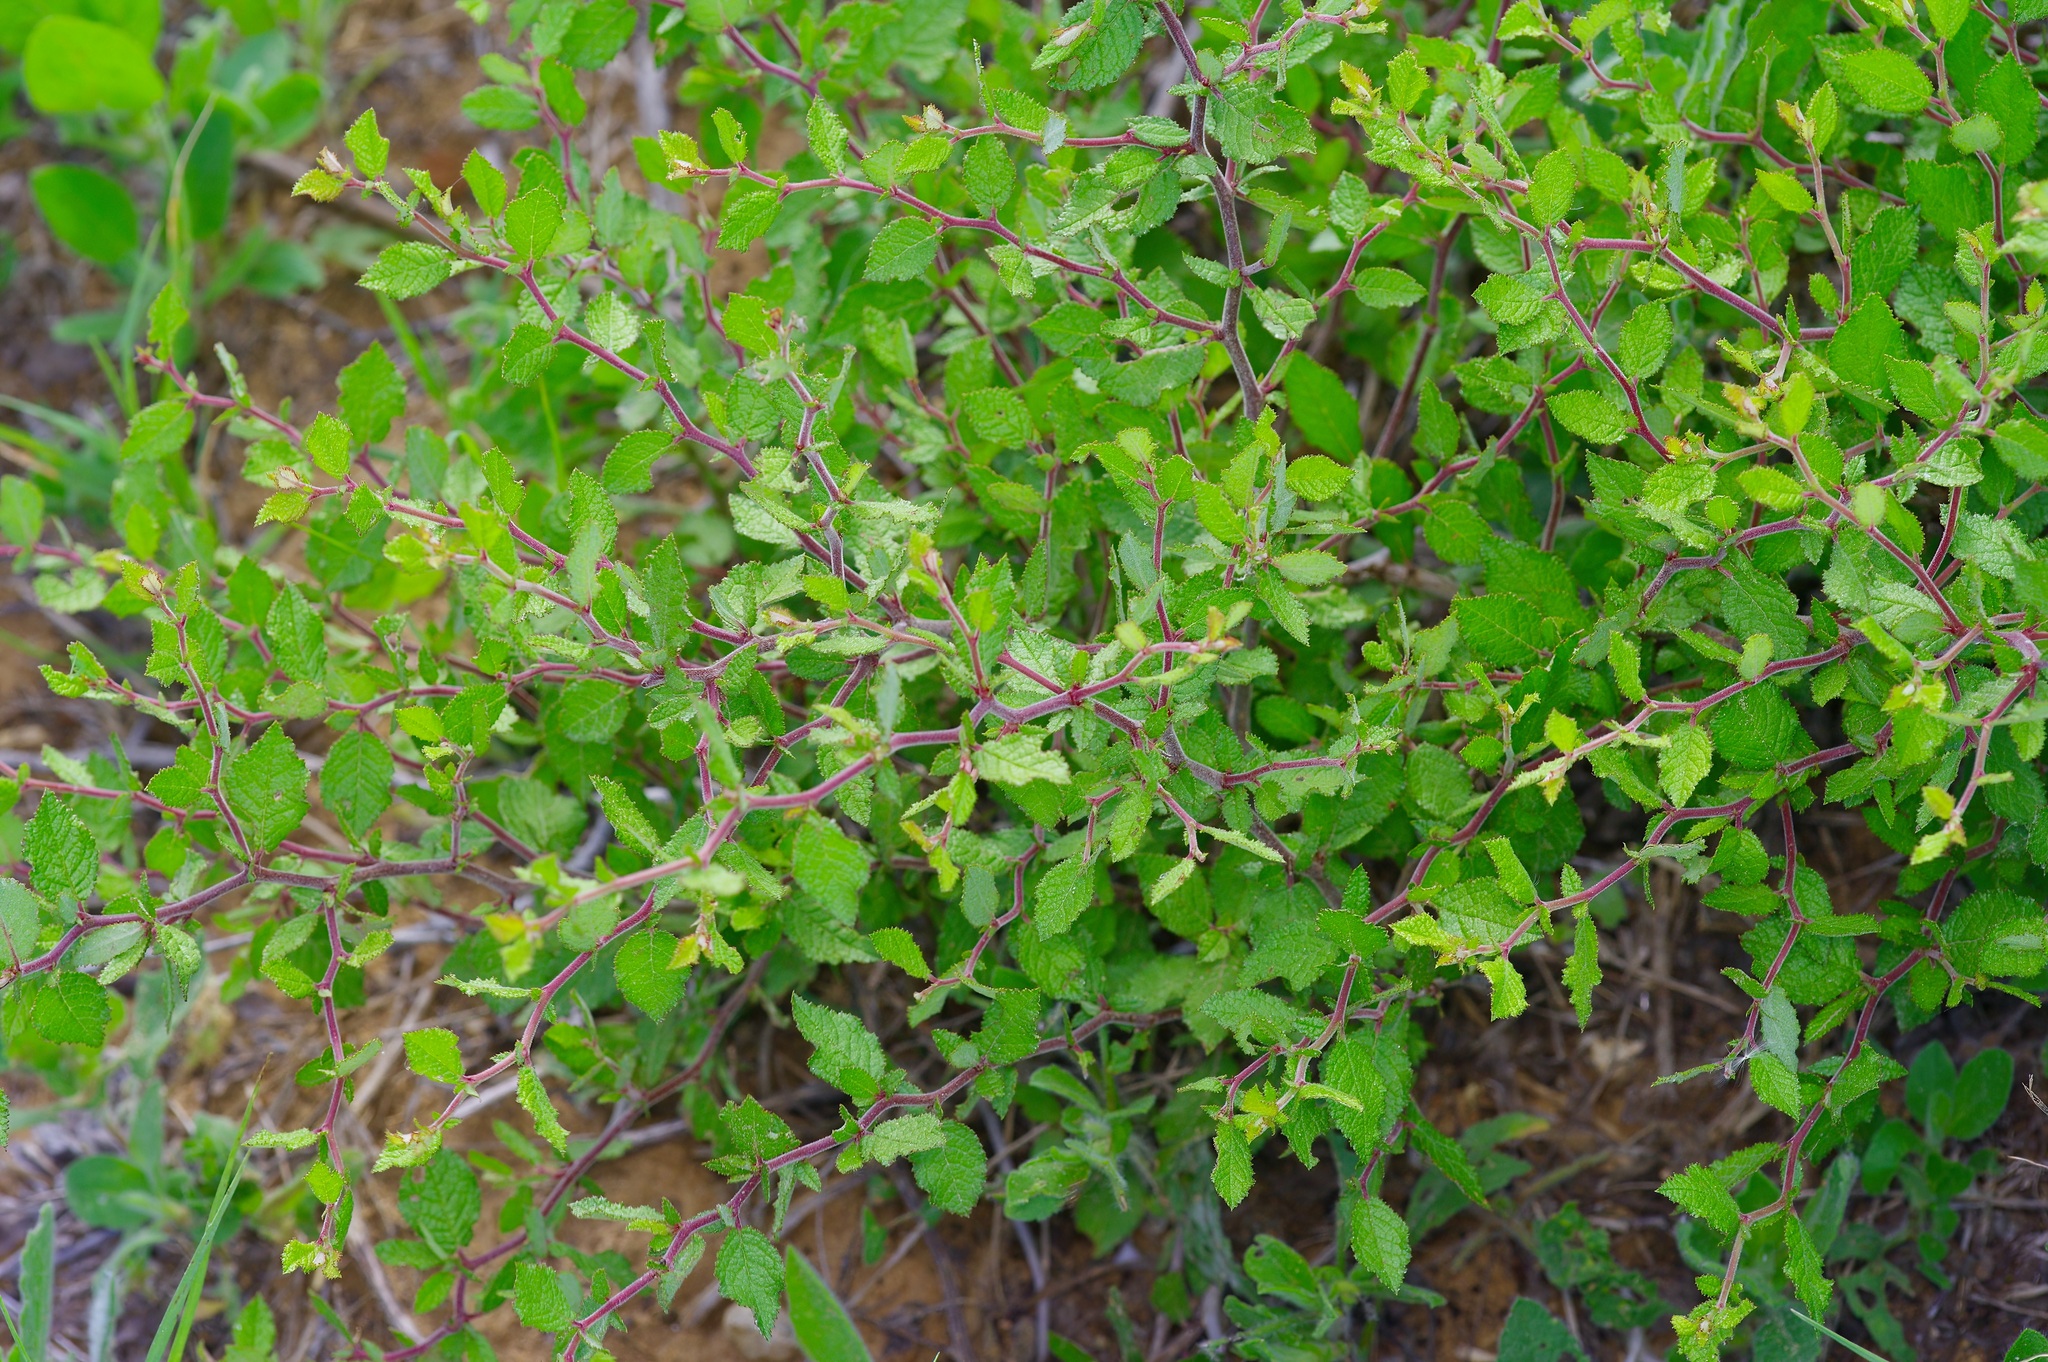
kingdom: Plantae
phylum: Tracheophyta
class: Magnoliopsida
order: Rosales
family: Rosaceae
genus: Prunus
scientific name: Prunus texana
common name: Texas almond cherry
